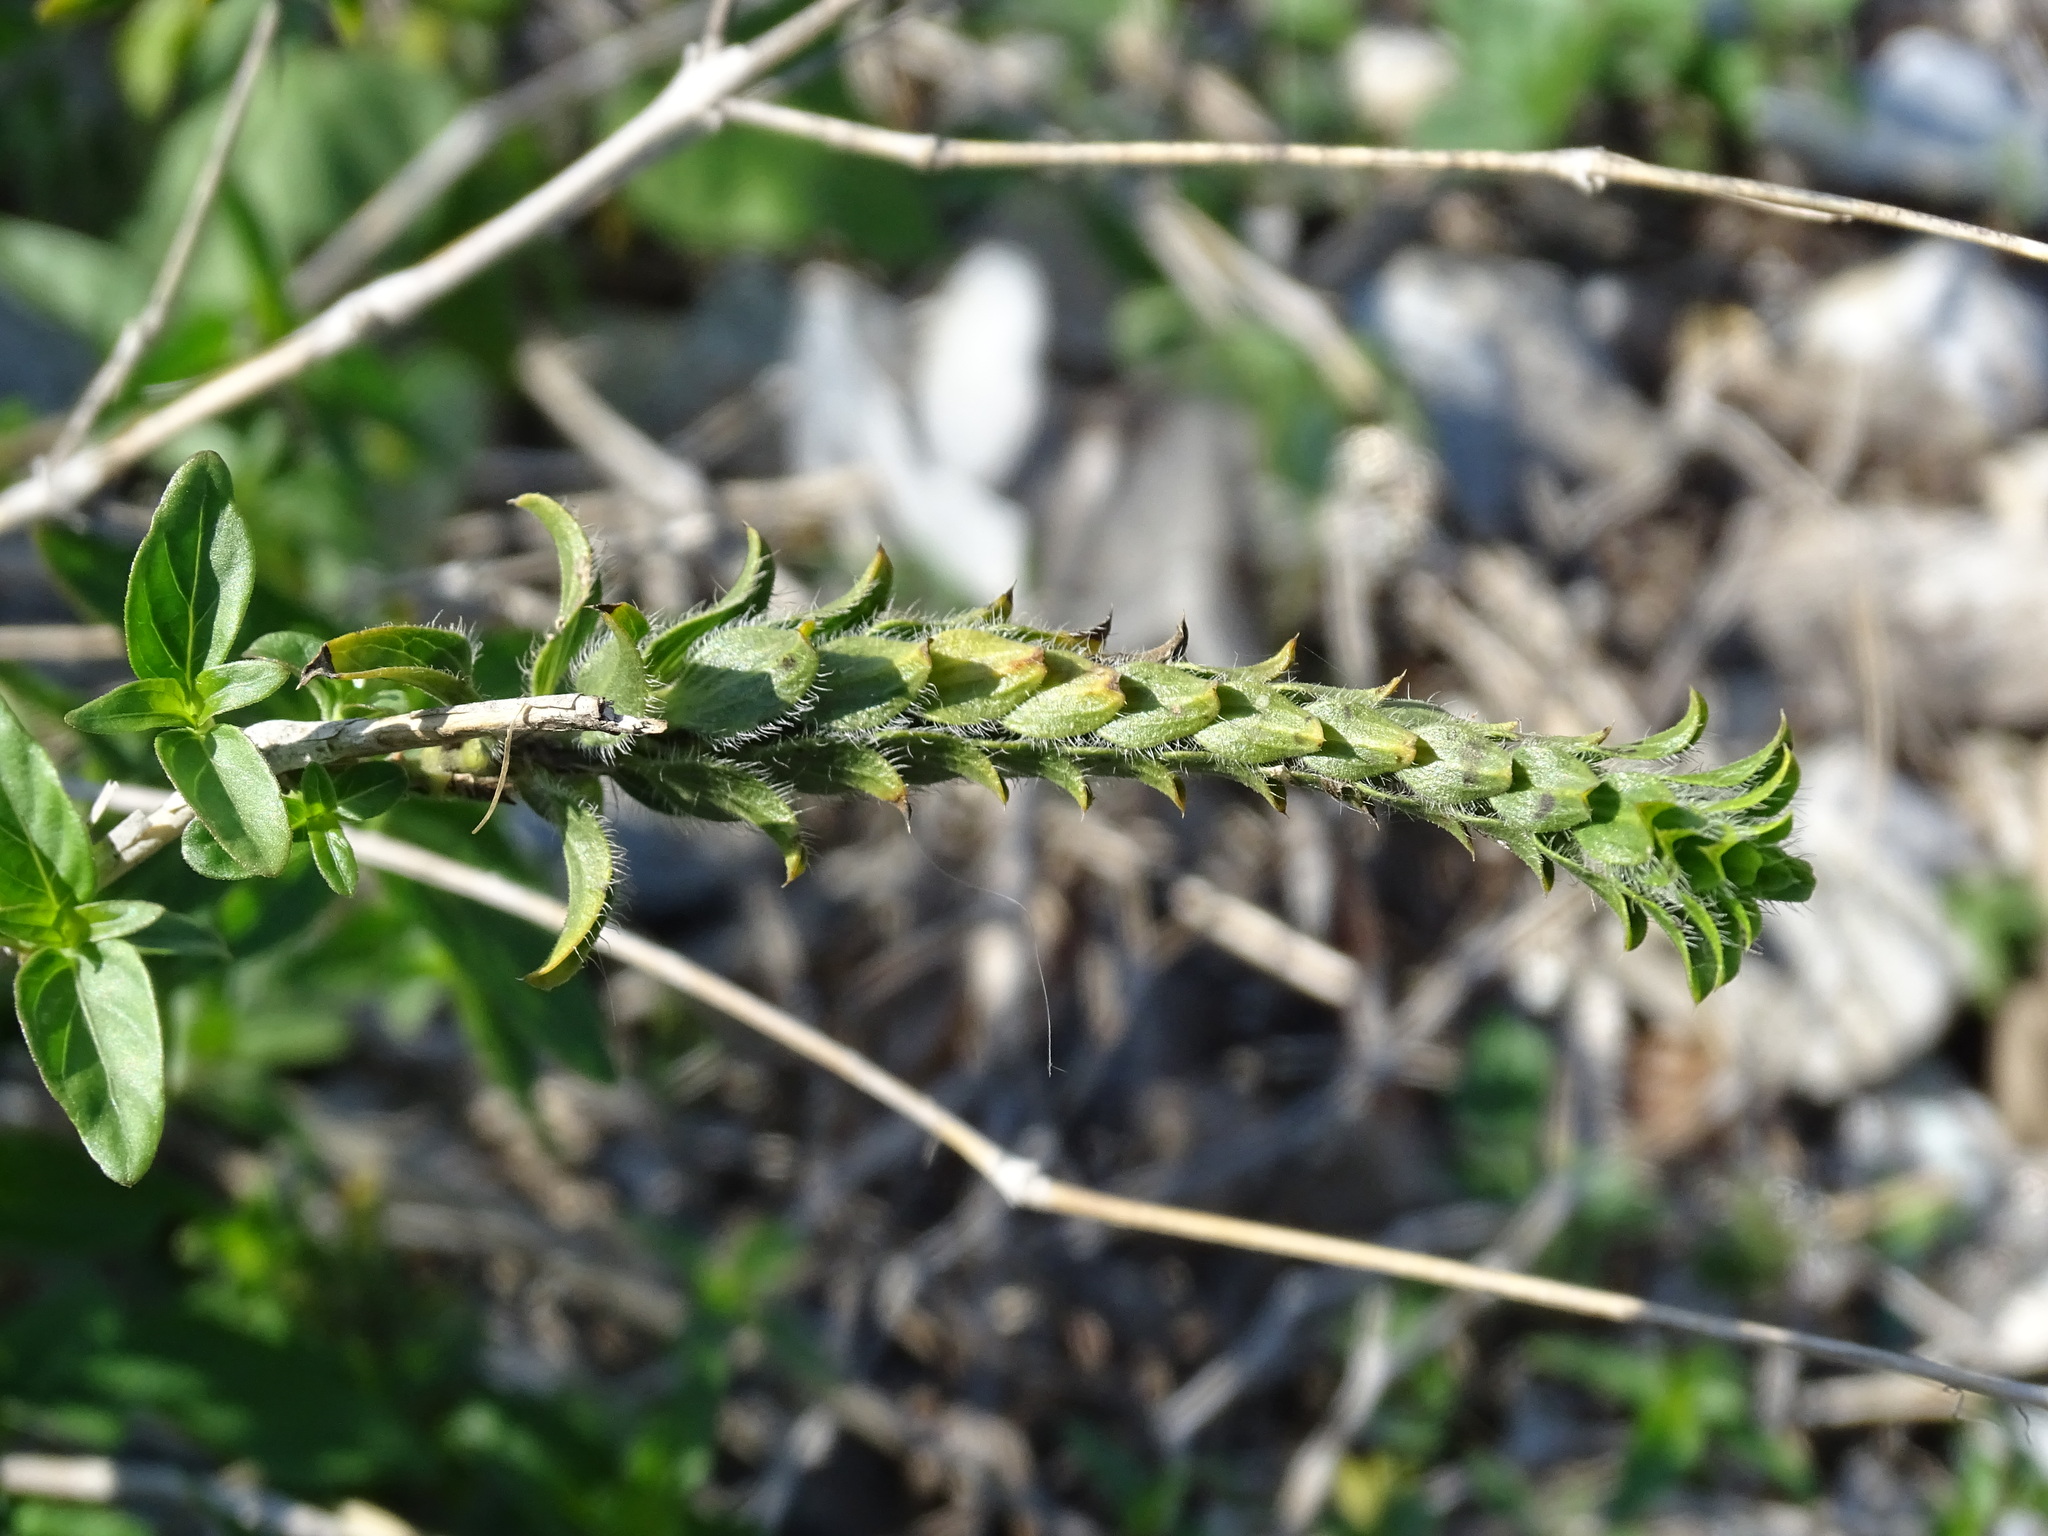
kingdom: Plantae
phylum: Tracheophyta
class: Magnoliopsida
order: Lamiales
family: Acanthaceae
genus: Tetramerium
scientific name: Tetramerium nervosum
